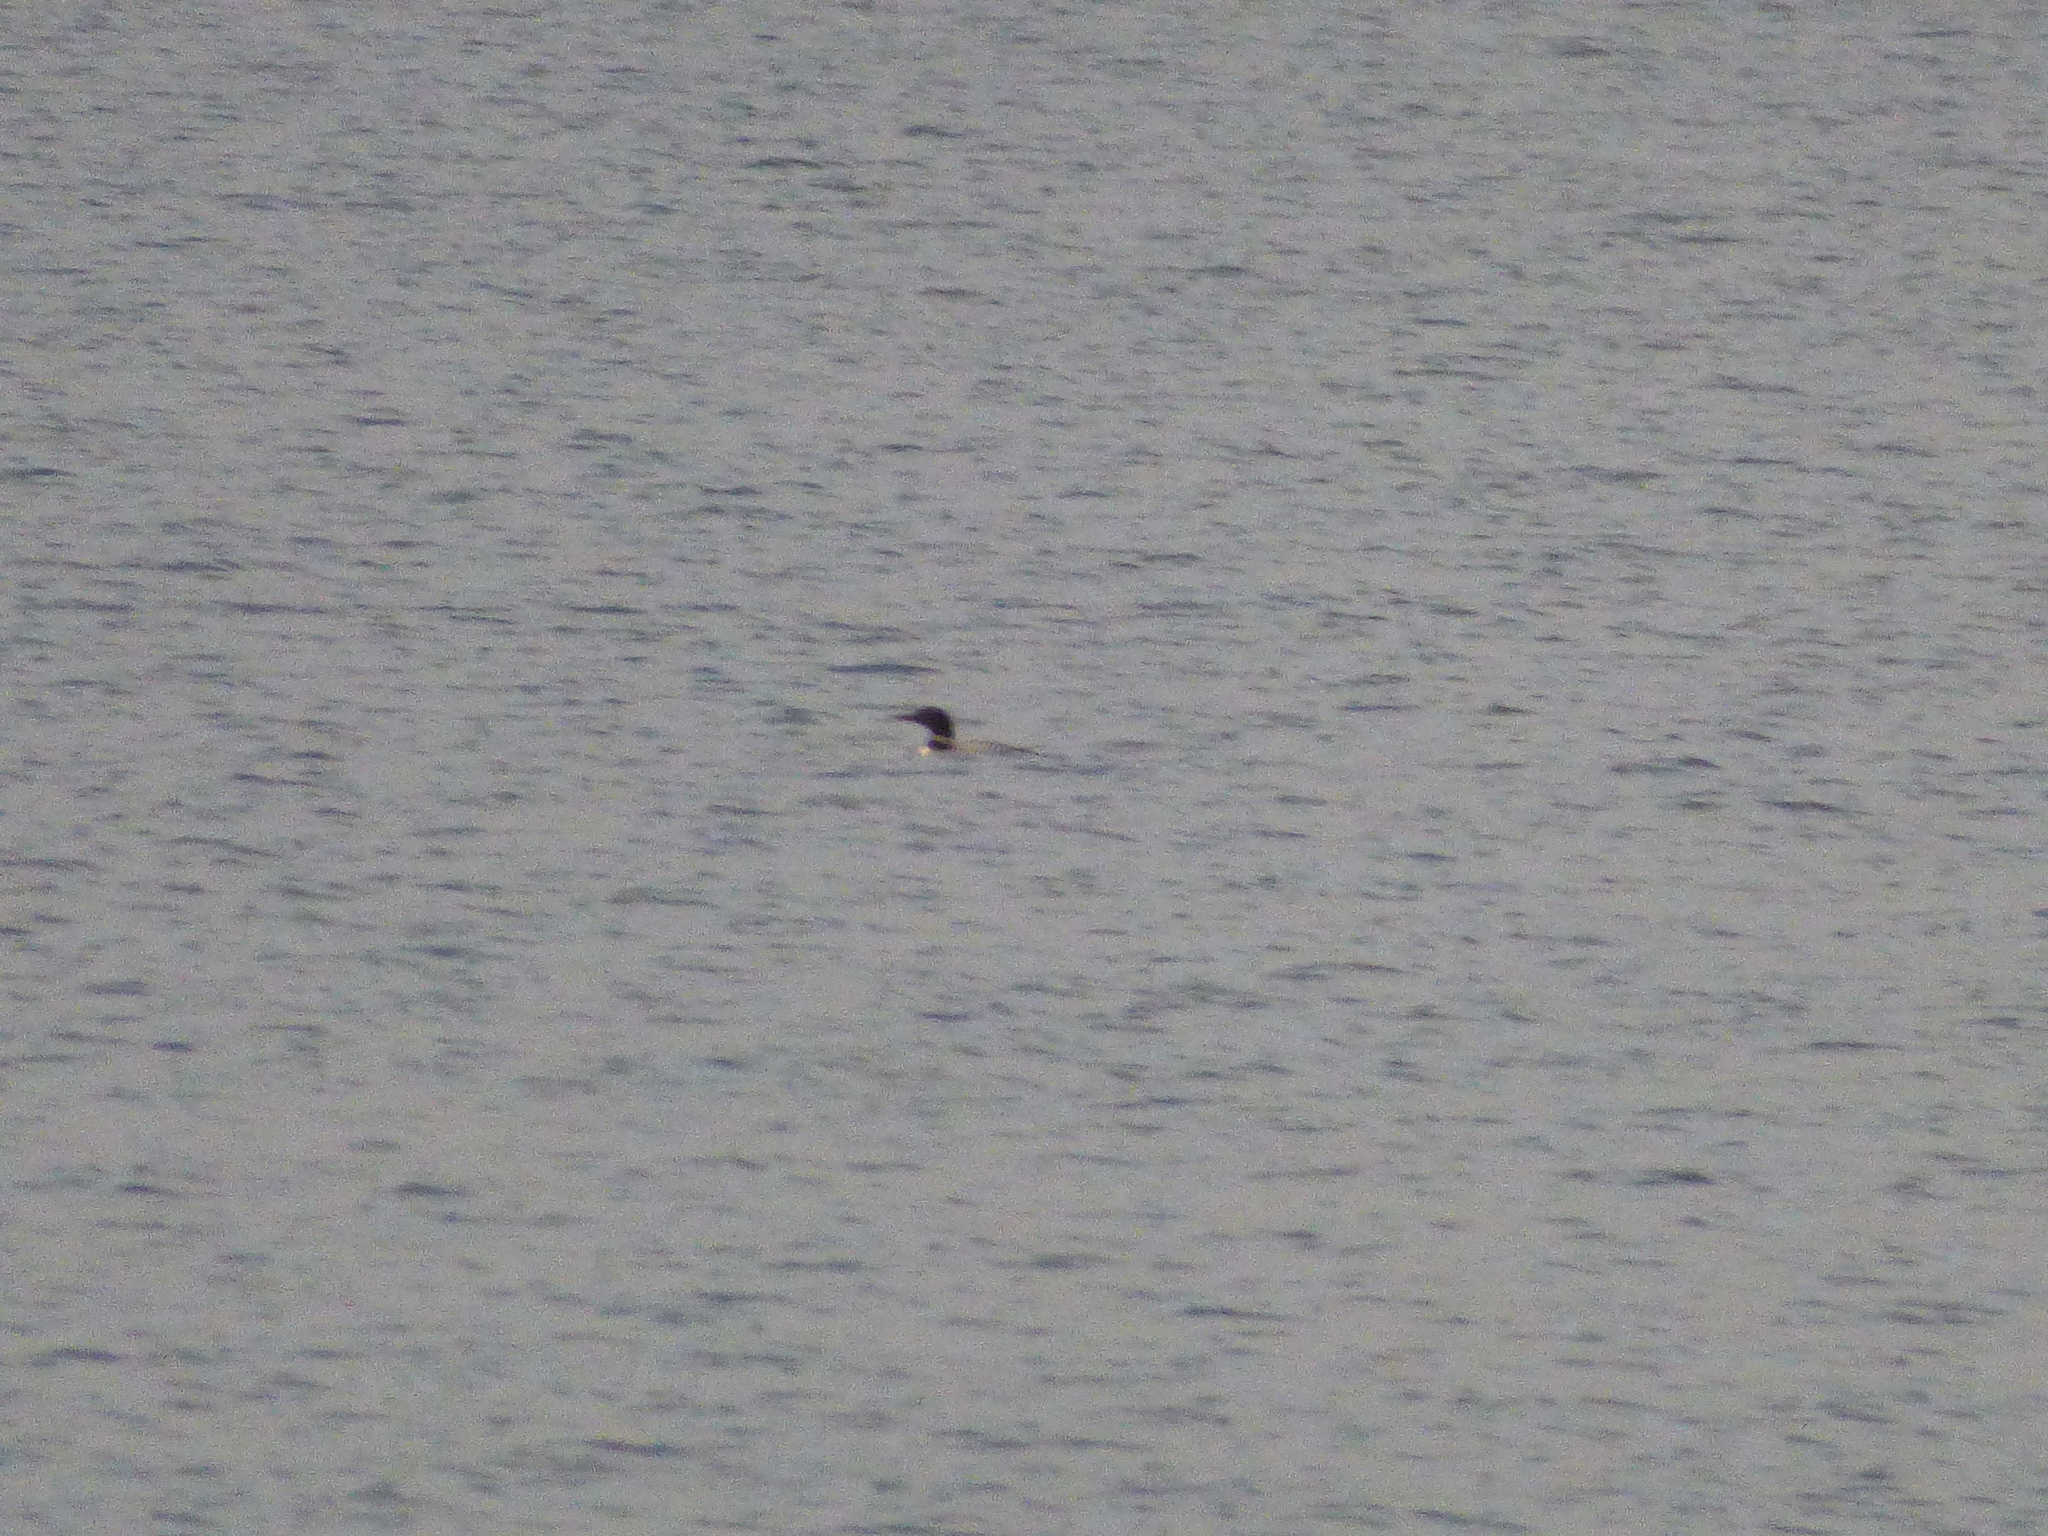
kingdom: Animalia
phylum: Chordata
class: Aves
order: Gaviiformes
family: Gaviidae
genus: Gavia
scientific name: Gavia immer
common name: Common loon
